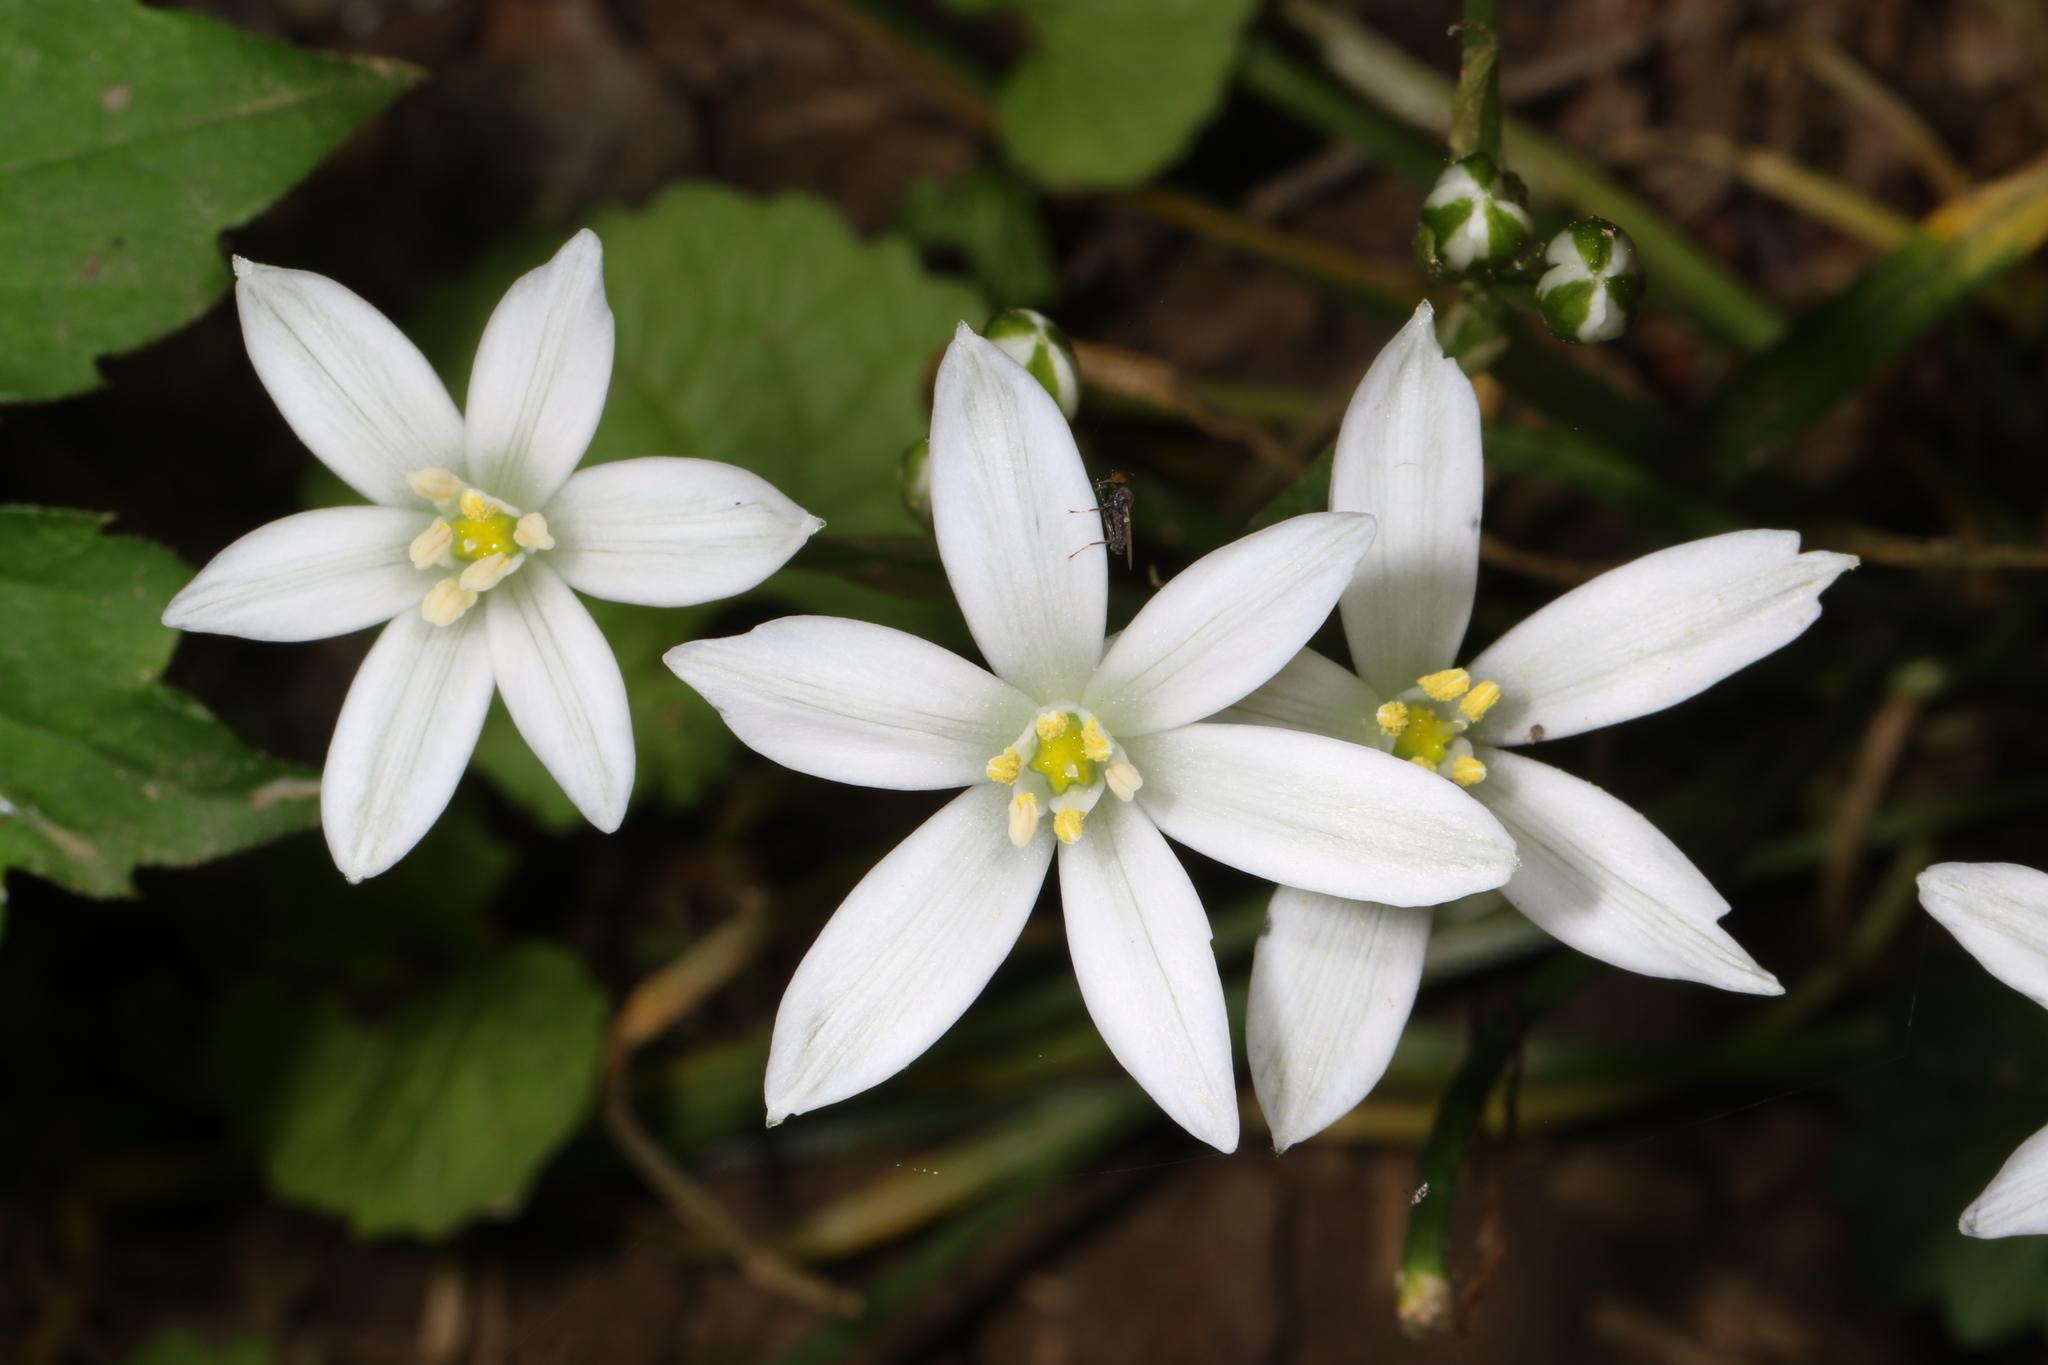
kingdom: Plantae
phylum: Tracheophyta
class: Liliopsida
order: Asparagales
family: Asparagaceae
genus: Ornithogalum
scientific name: Ornithogalum umbellatum
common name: Garden star-of-bethlehem
